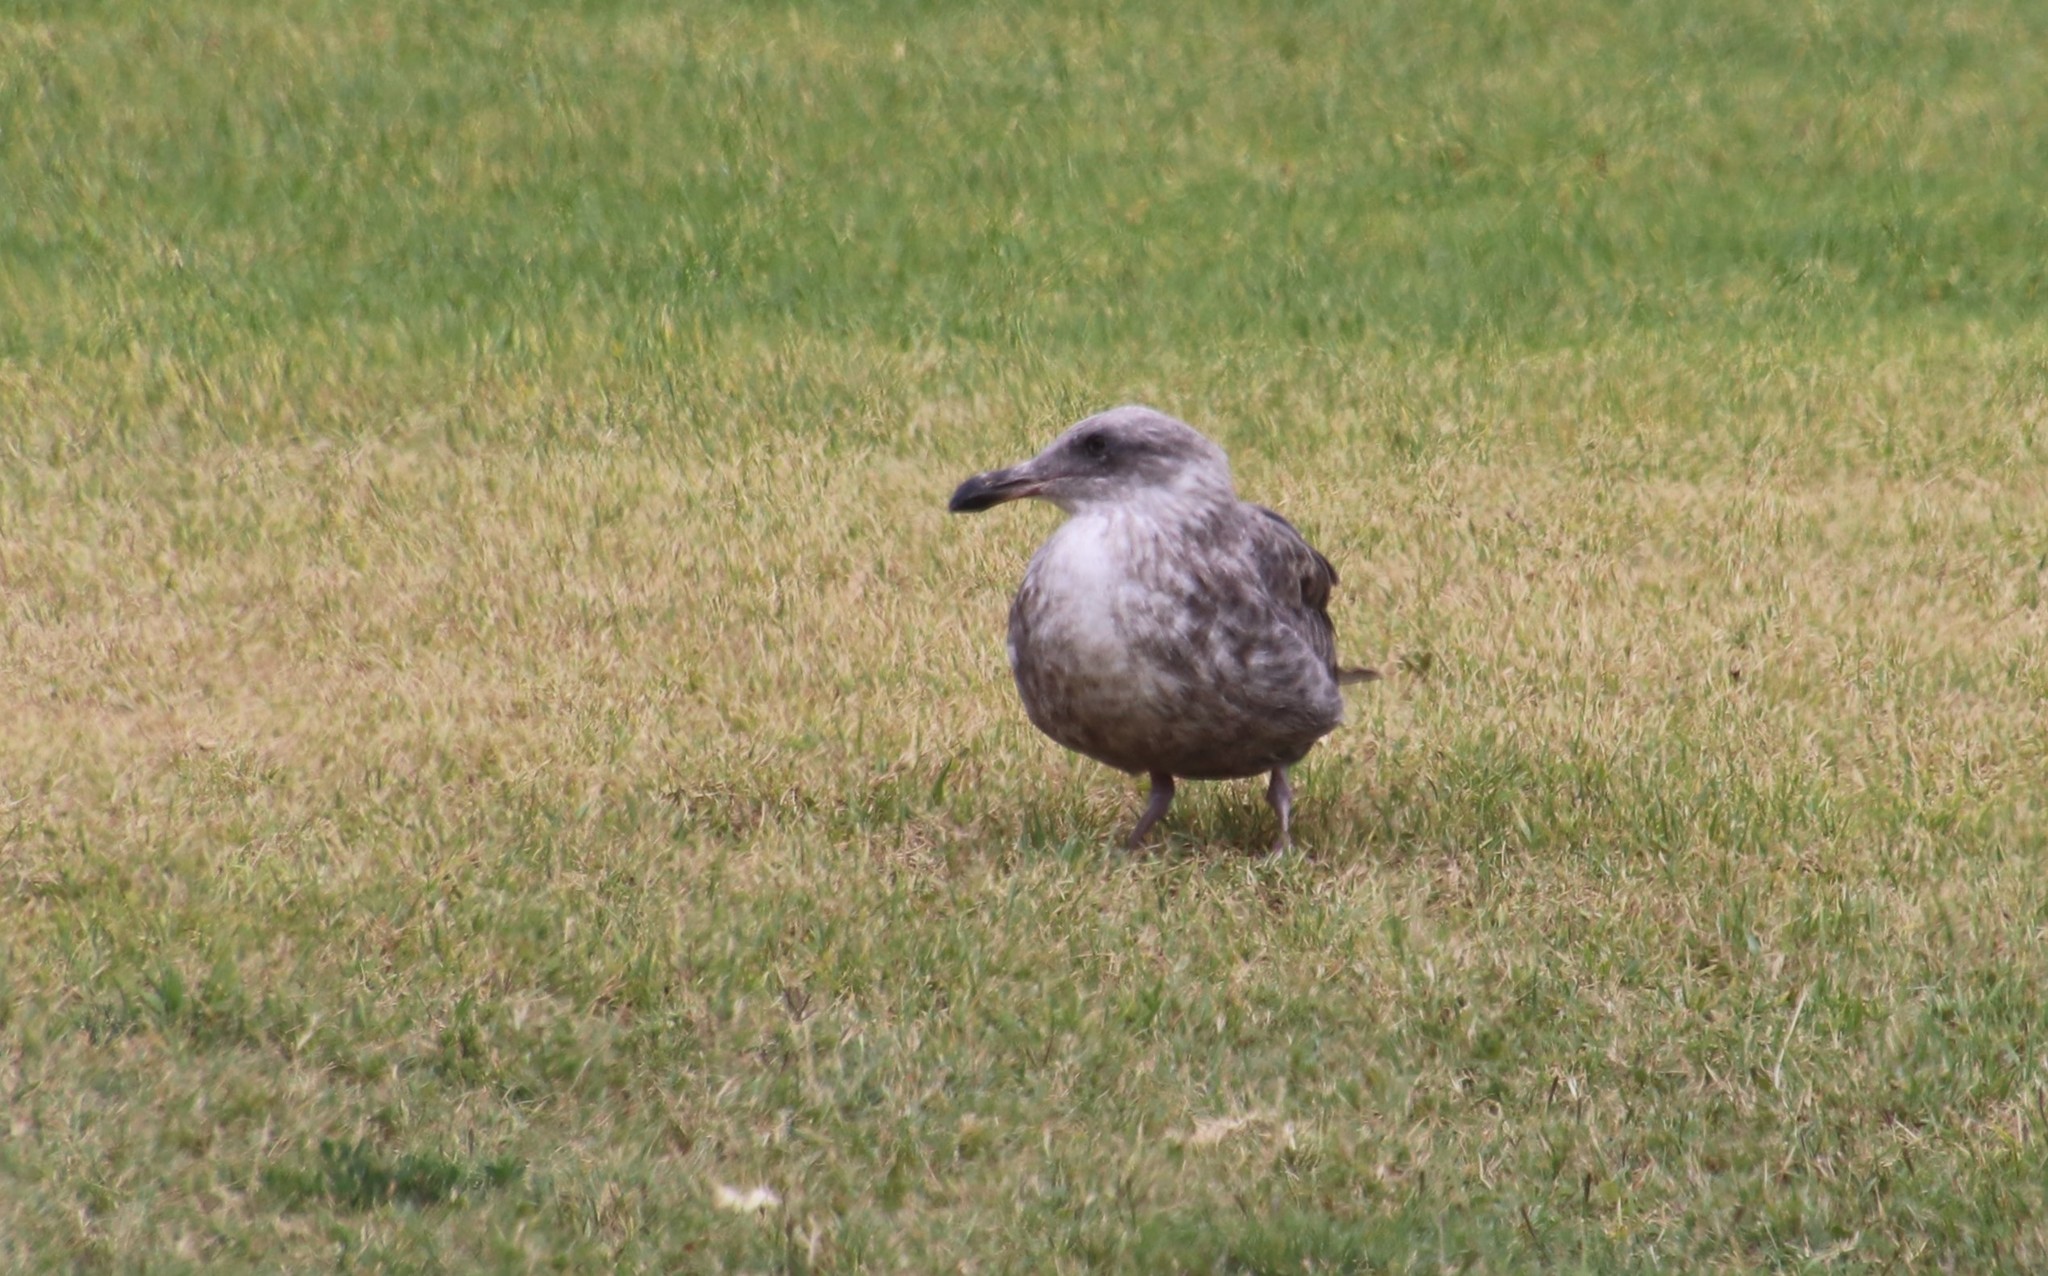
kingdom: Animalia
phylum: Chordata
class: Aves
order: Charadriiformes
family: Laridae
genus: Larus
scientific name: Larus occidentalis
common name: Western gull
